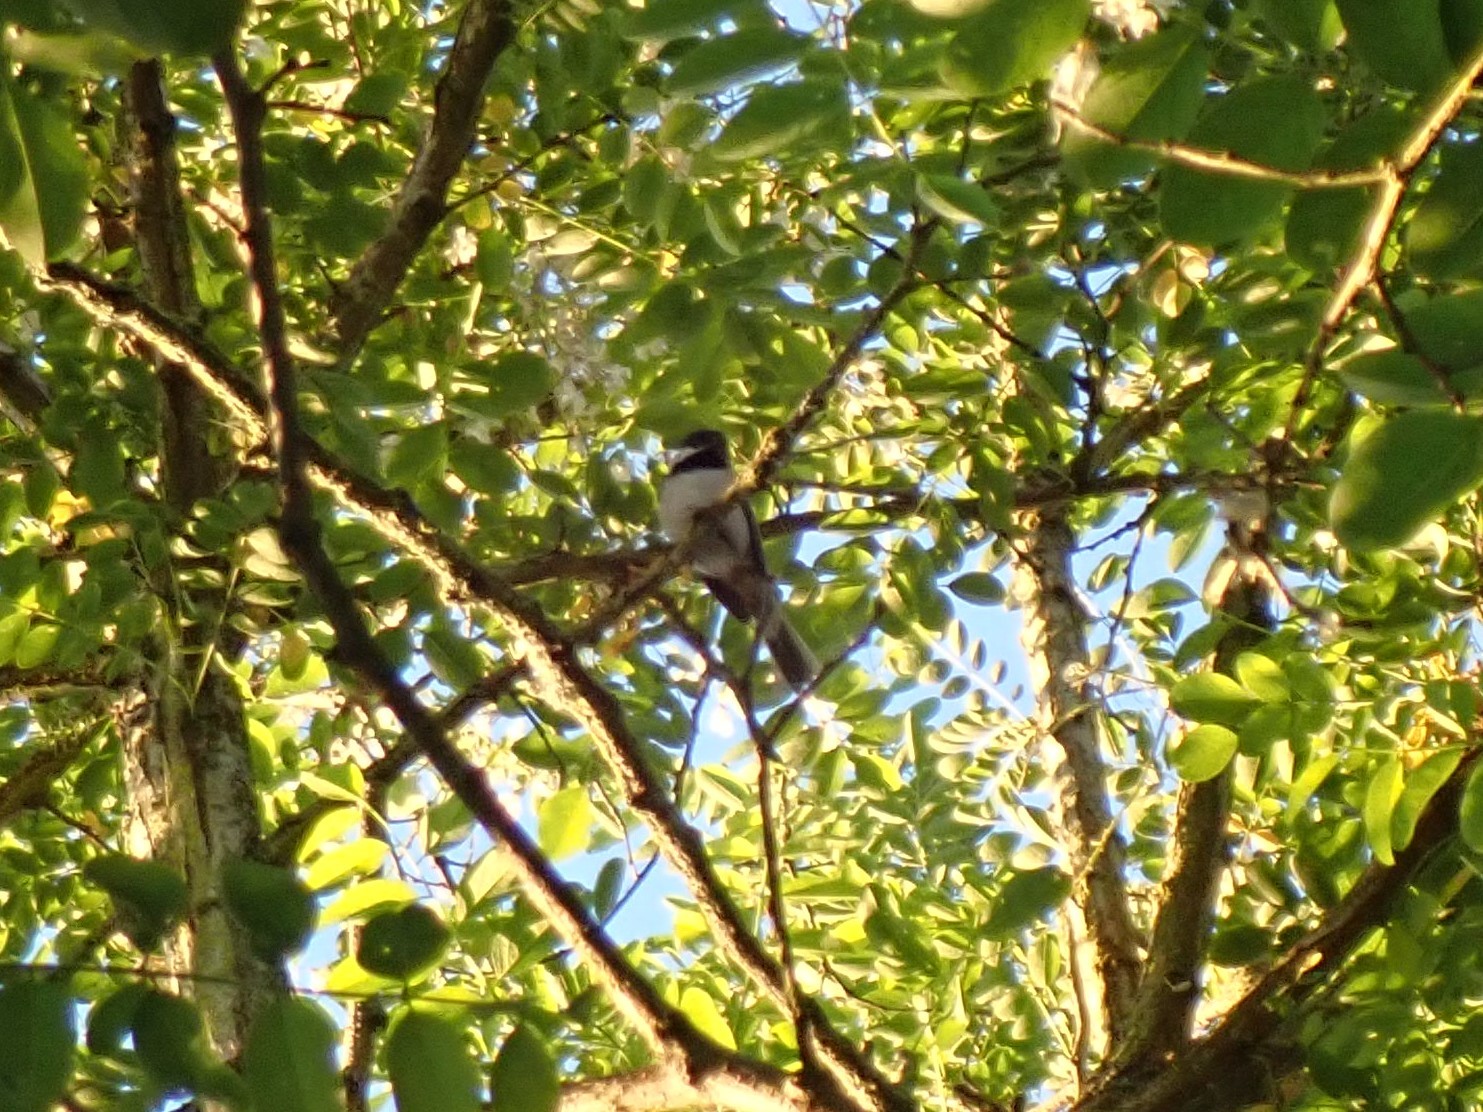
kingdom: Animalia
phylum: Chordata
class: Aves
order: Passeriformes
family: Paridae
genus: Poecile
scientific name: Poecile atricapillus
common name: Black-capped chickadee
